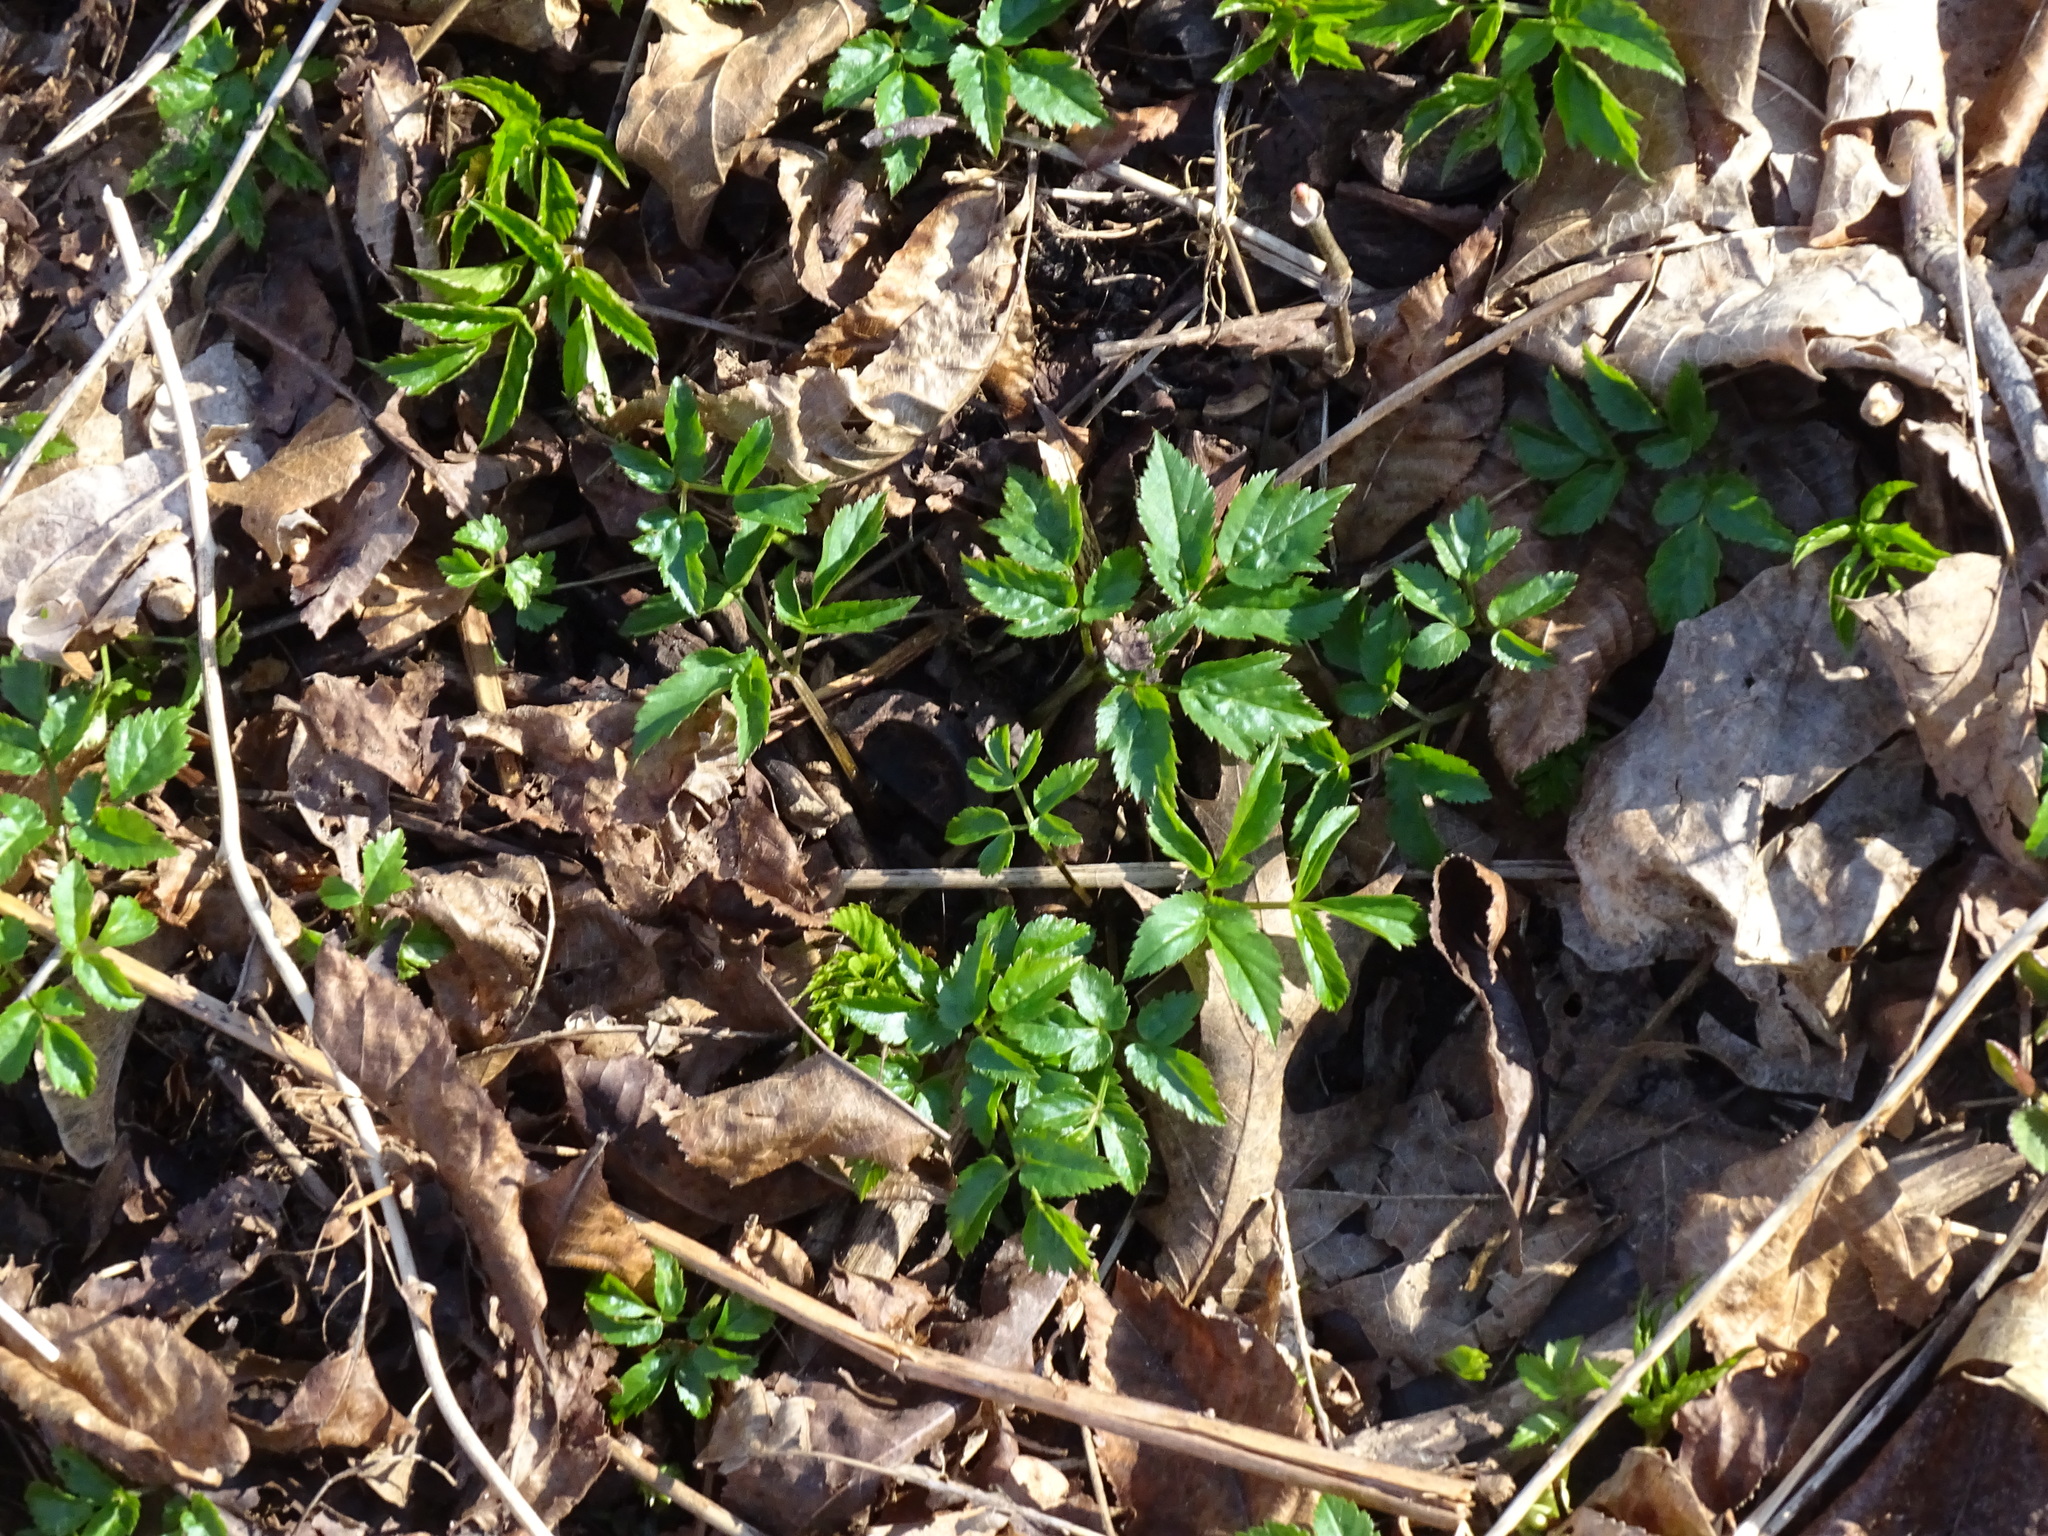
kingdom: Plantae
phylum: Tracheophyta
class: Magnoliopsida
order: Apiales
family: Apiaceae
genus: Aegopodium
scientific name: Aegopodium podagraria
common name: Ground-elder
